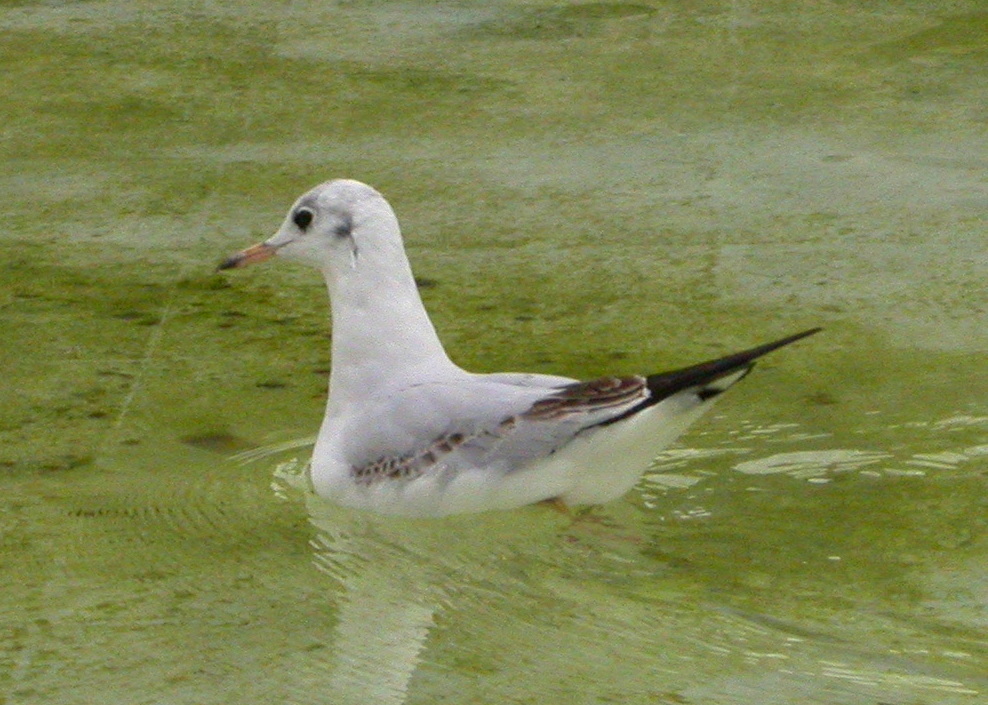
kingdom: Animalia
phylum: Chordata
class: Aves
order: Charadriiformes
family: Laridae
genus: Chroicocephalus
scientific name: Chroicocephalus ridibundus
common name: Black-headed gull
